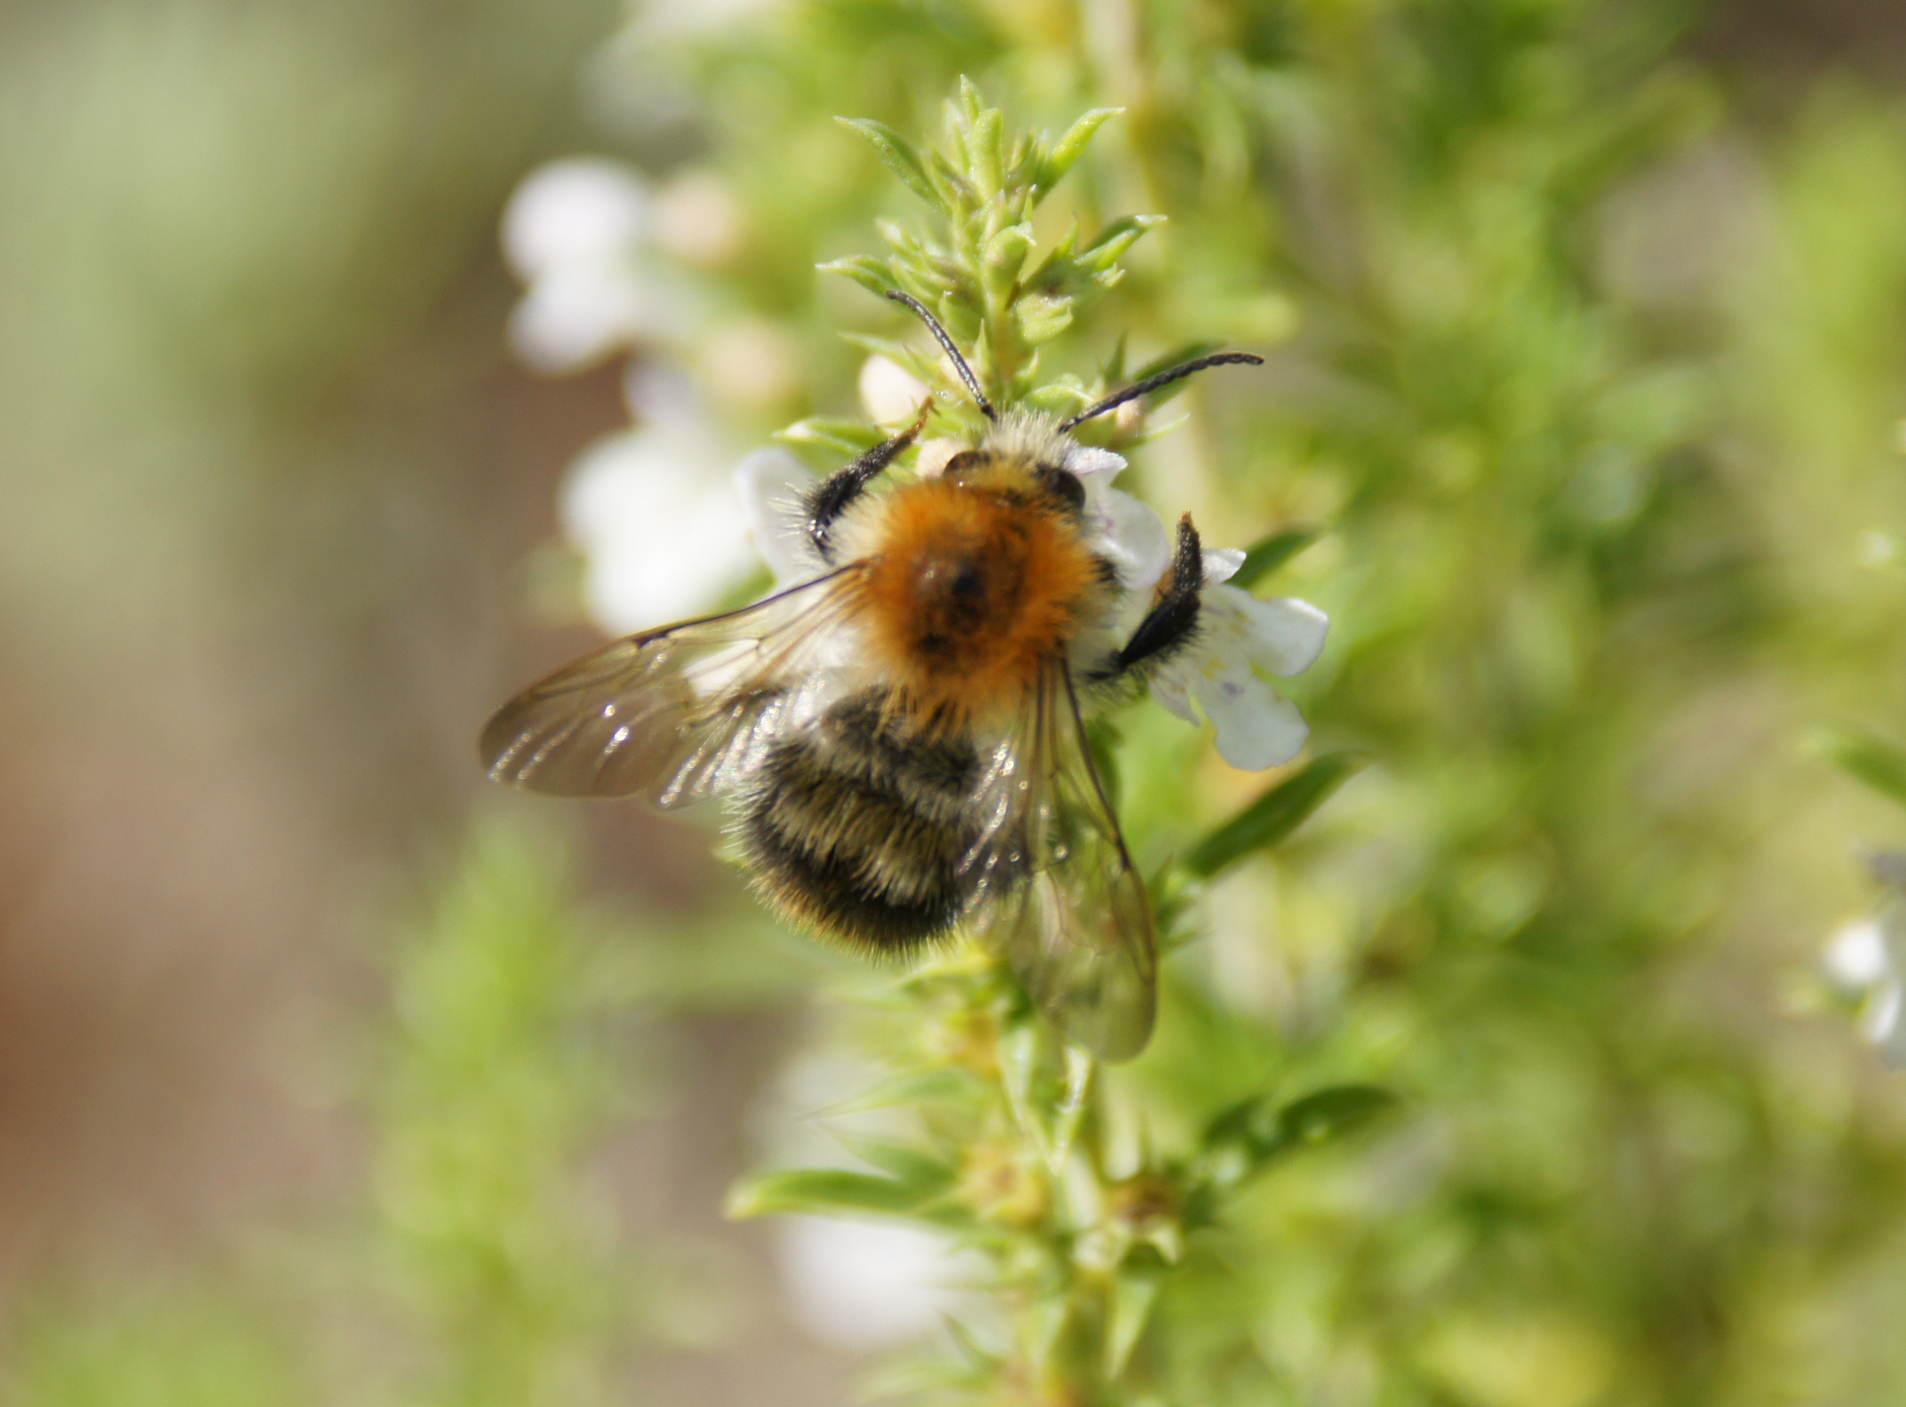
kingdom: Animalia
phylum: Arthropoda
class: Insecta
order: Hymenoptera
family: Apidae
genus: Bombus
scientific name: Bombus pascuorum
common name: Common carder bee
